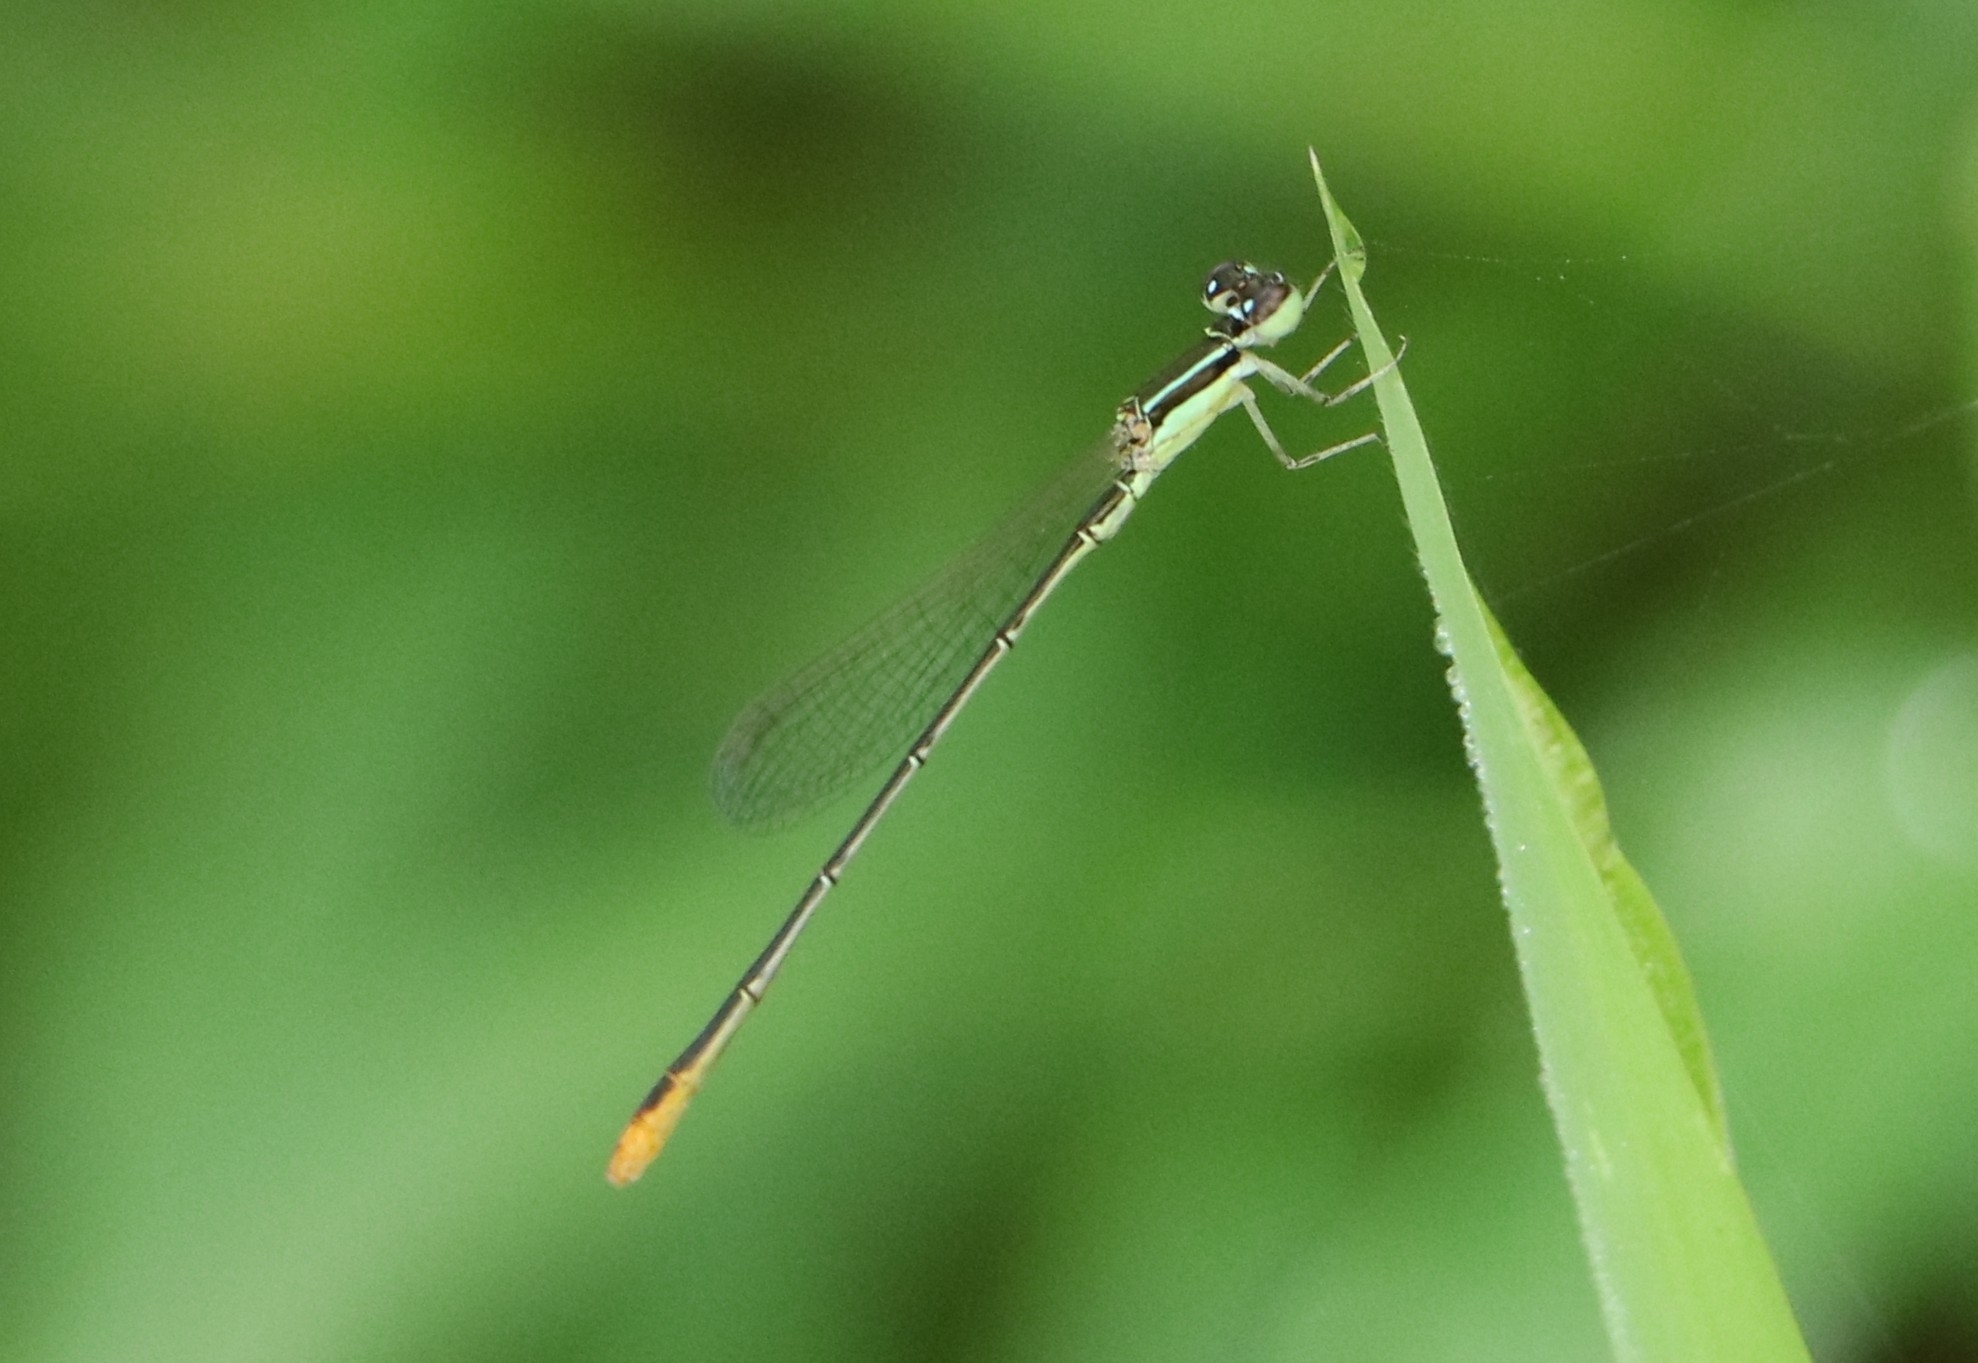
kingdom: Animalia
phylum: Arthropoda
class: Insecta
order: Odonata
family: Coenagrionidae
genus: Agriocnemis
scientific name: Agriocnemis pygmaea
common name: Pygmy wisp
